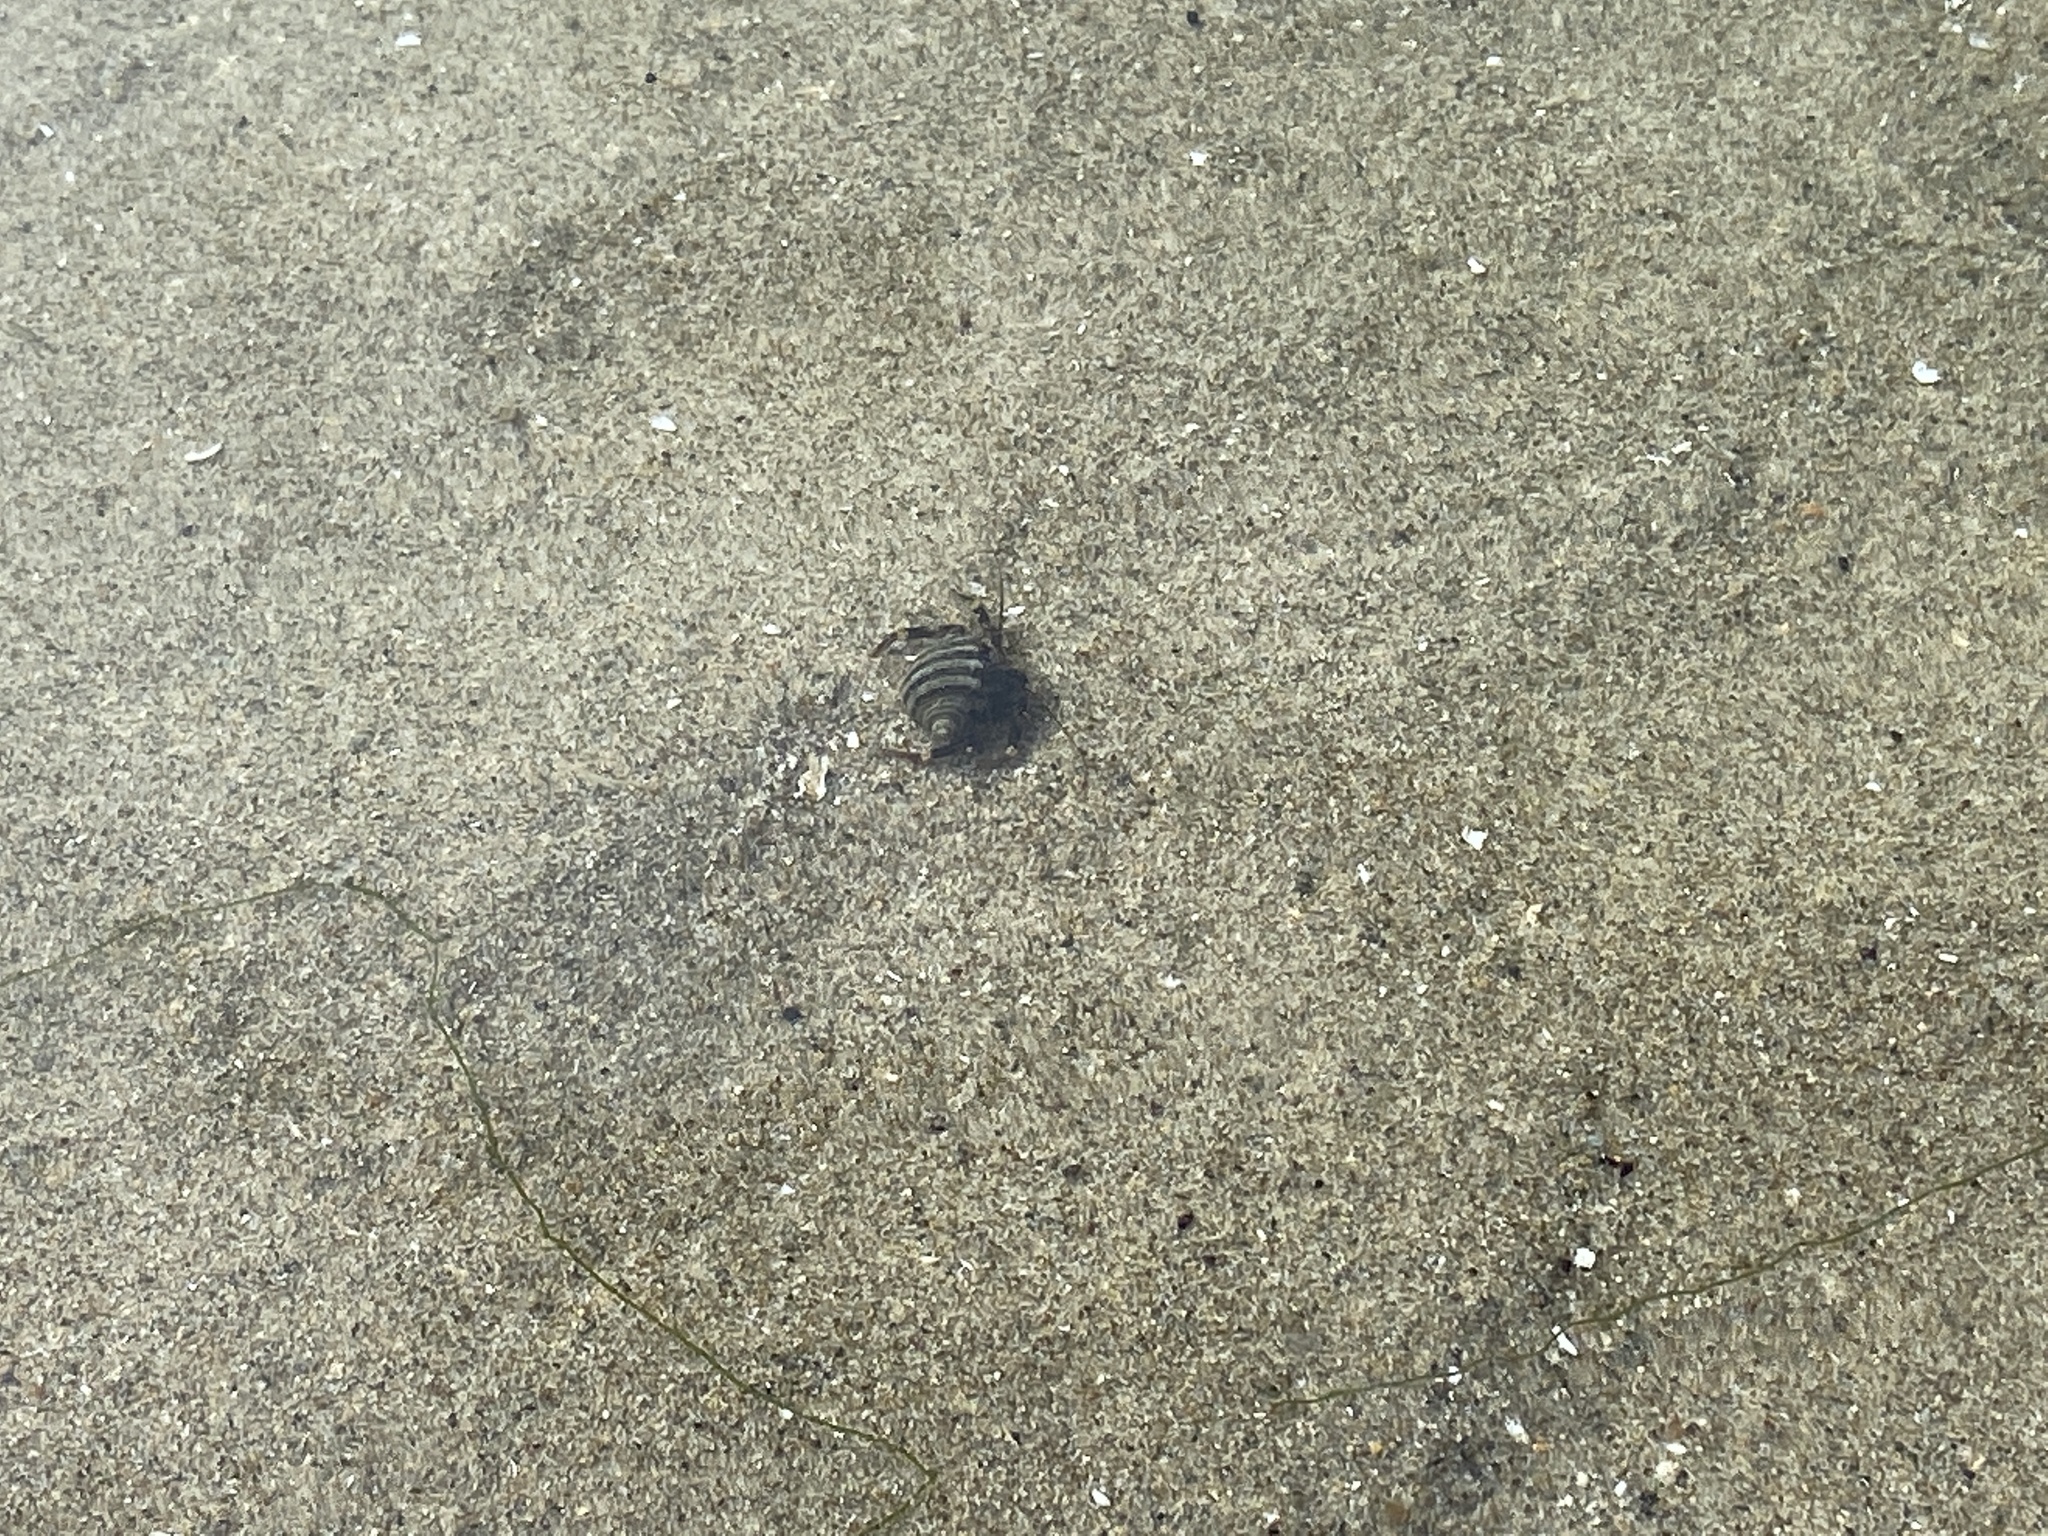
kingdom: Animalia
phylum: Arthropoda
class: Malacostraca
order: Decapoda
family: Paguridae
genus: Pagurus
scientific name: Pagurus hirsutiusculus
